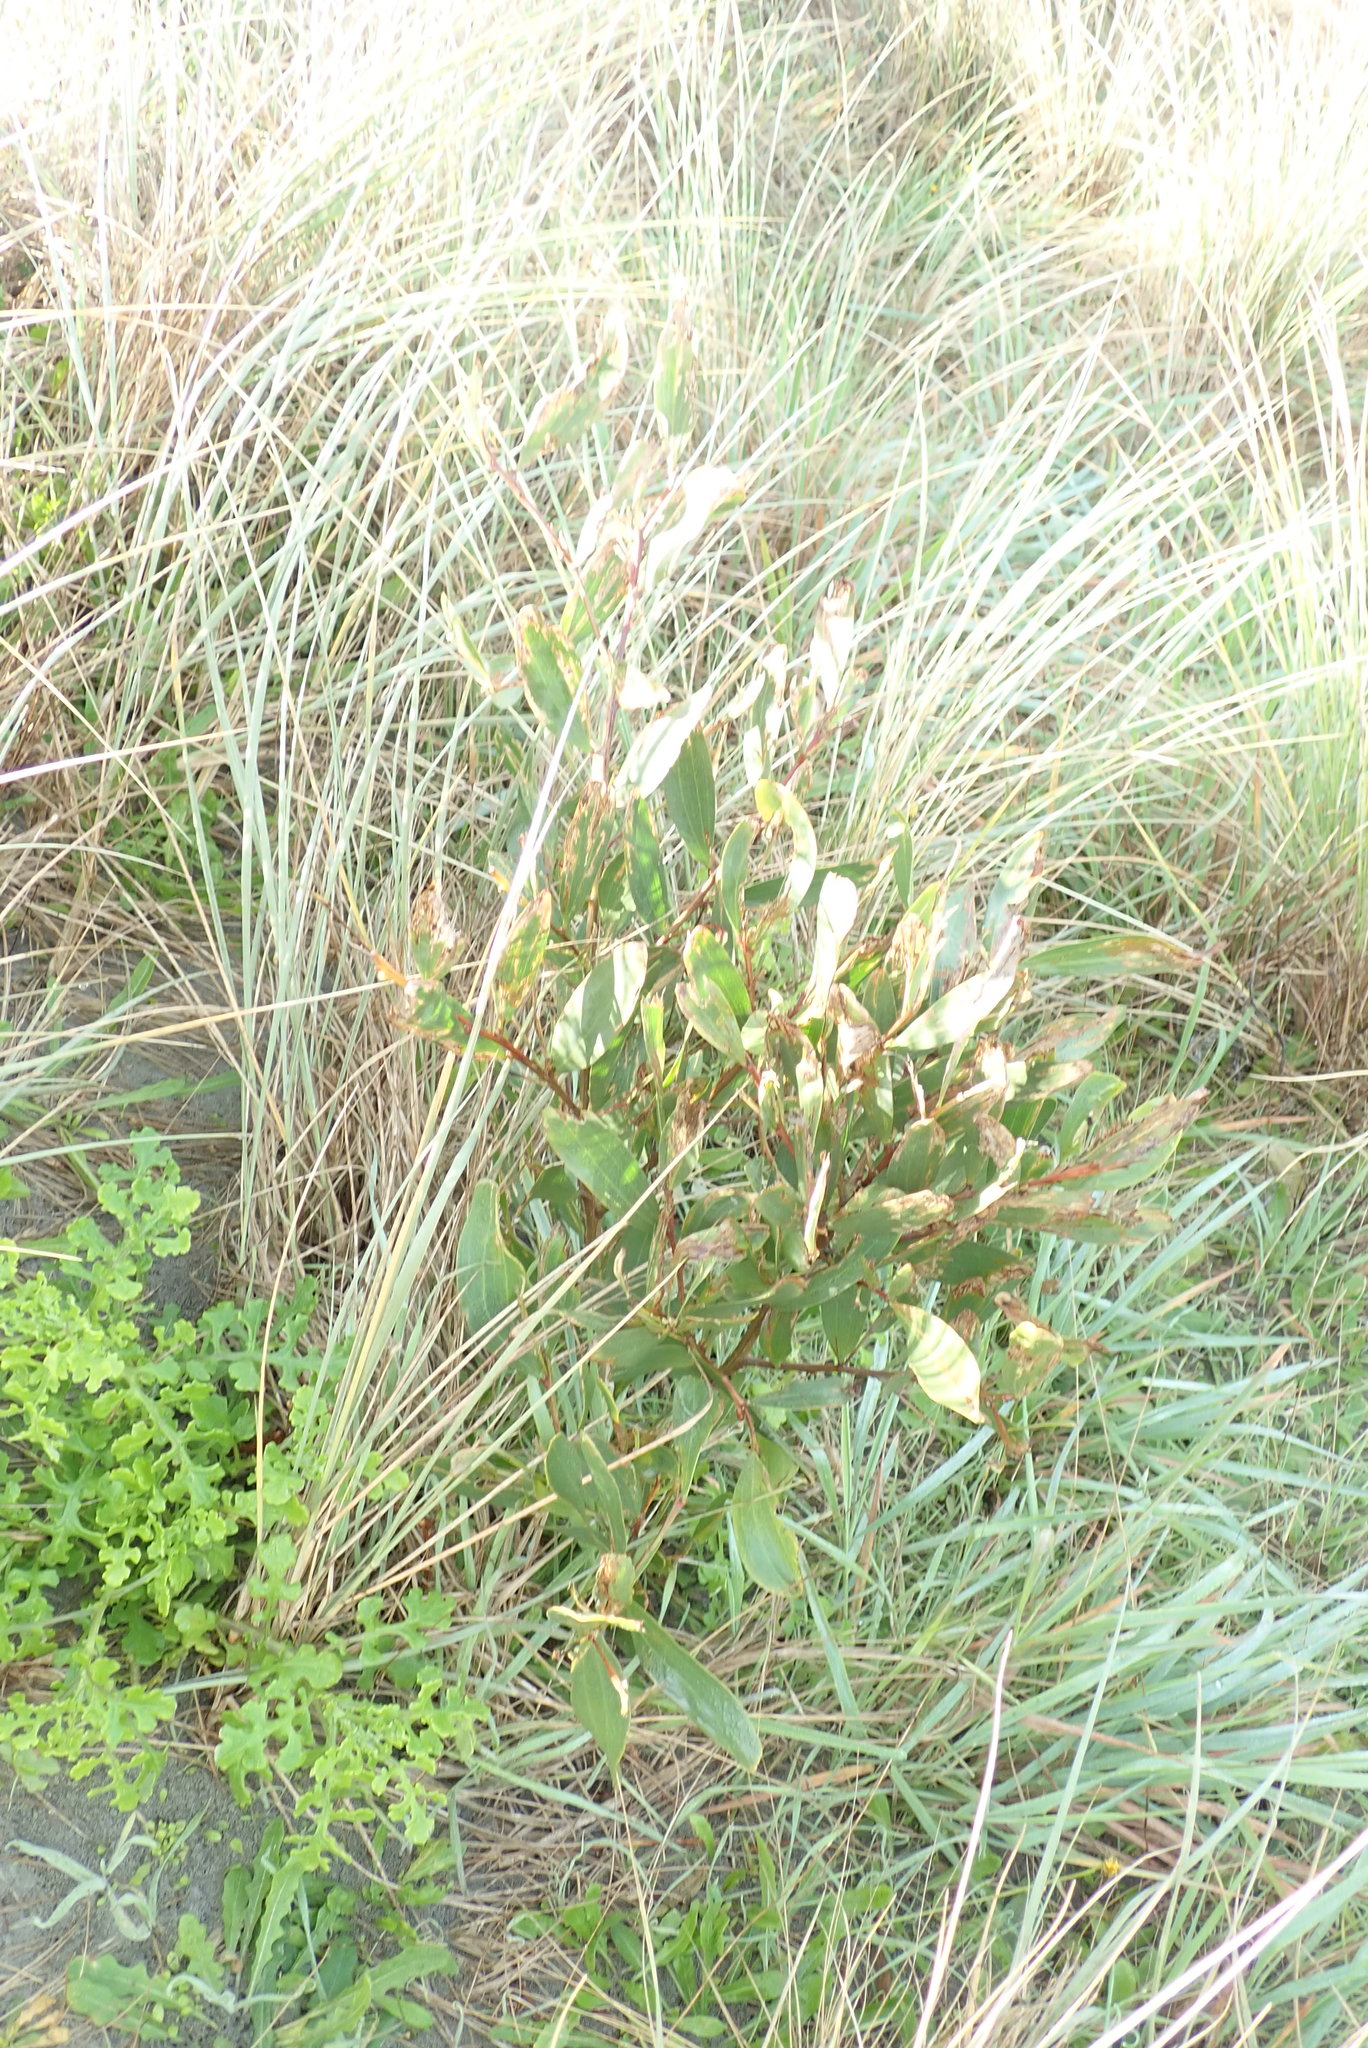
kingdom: Plantae
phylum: Tracheophyta
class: Magnoliopsida
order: Fabales
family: Fabaceae
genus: Acacia
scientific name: Acacia longifolia
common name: Sydney golden wattle
